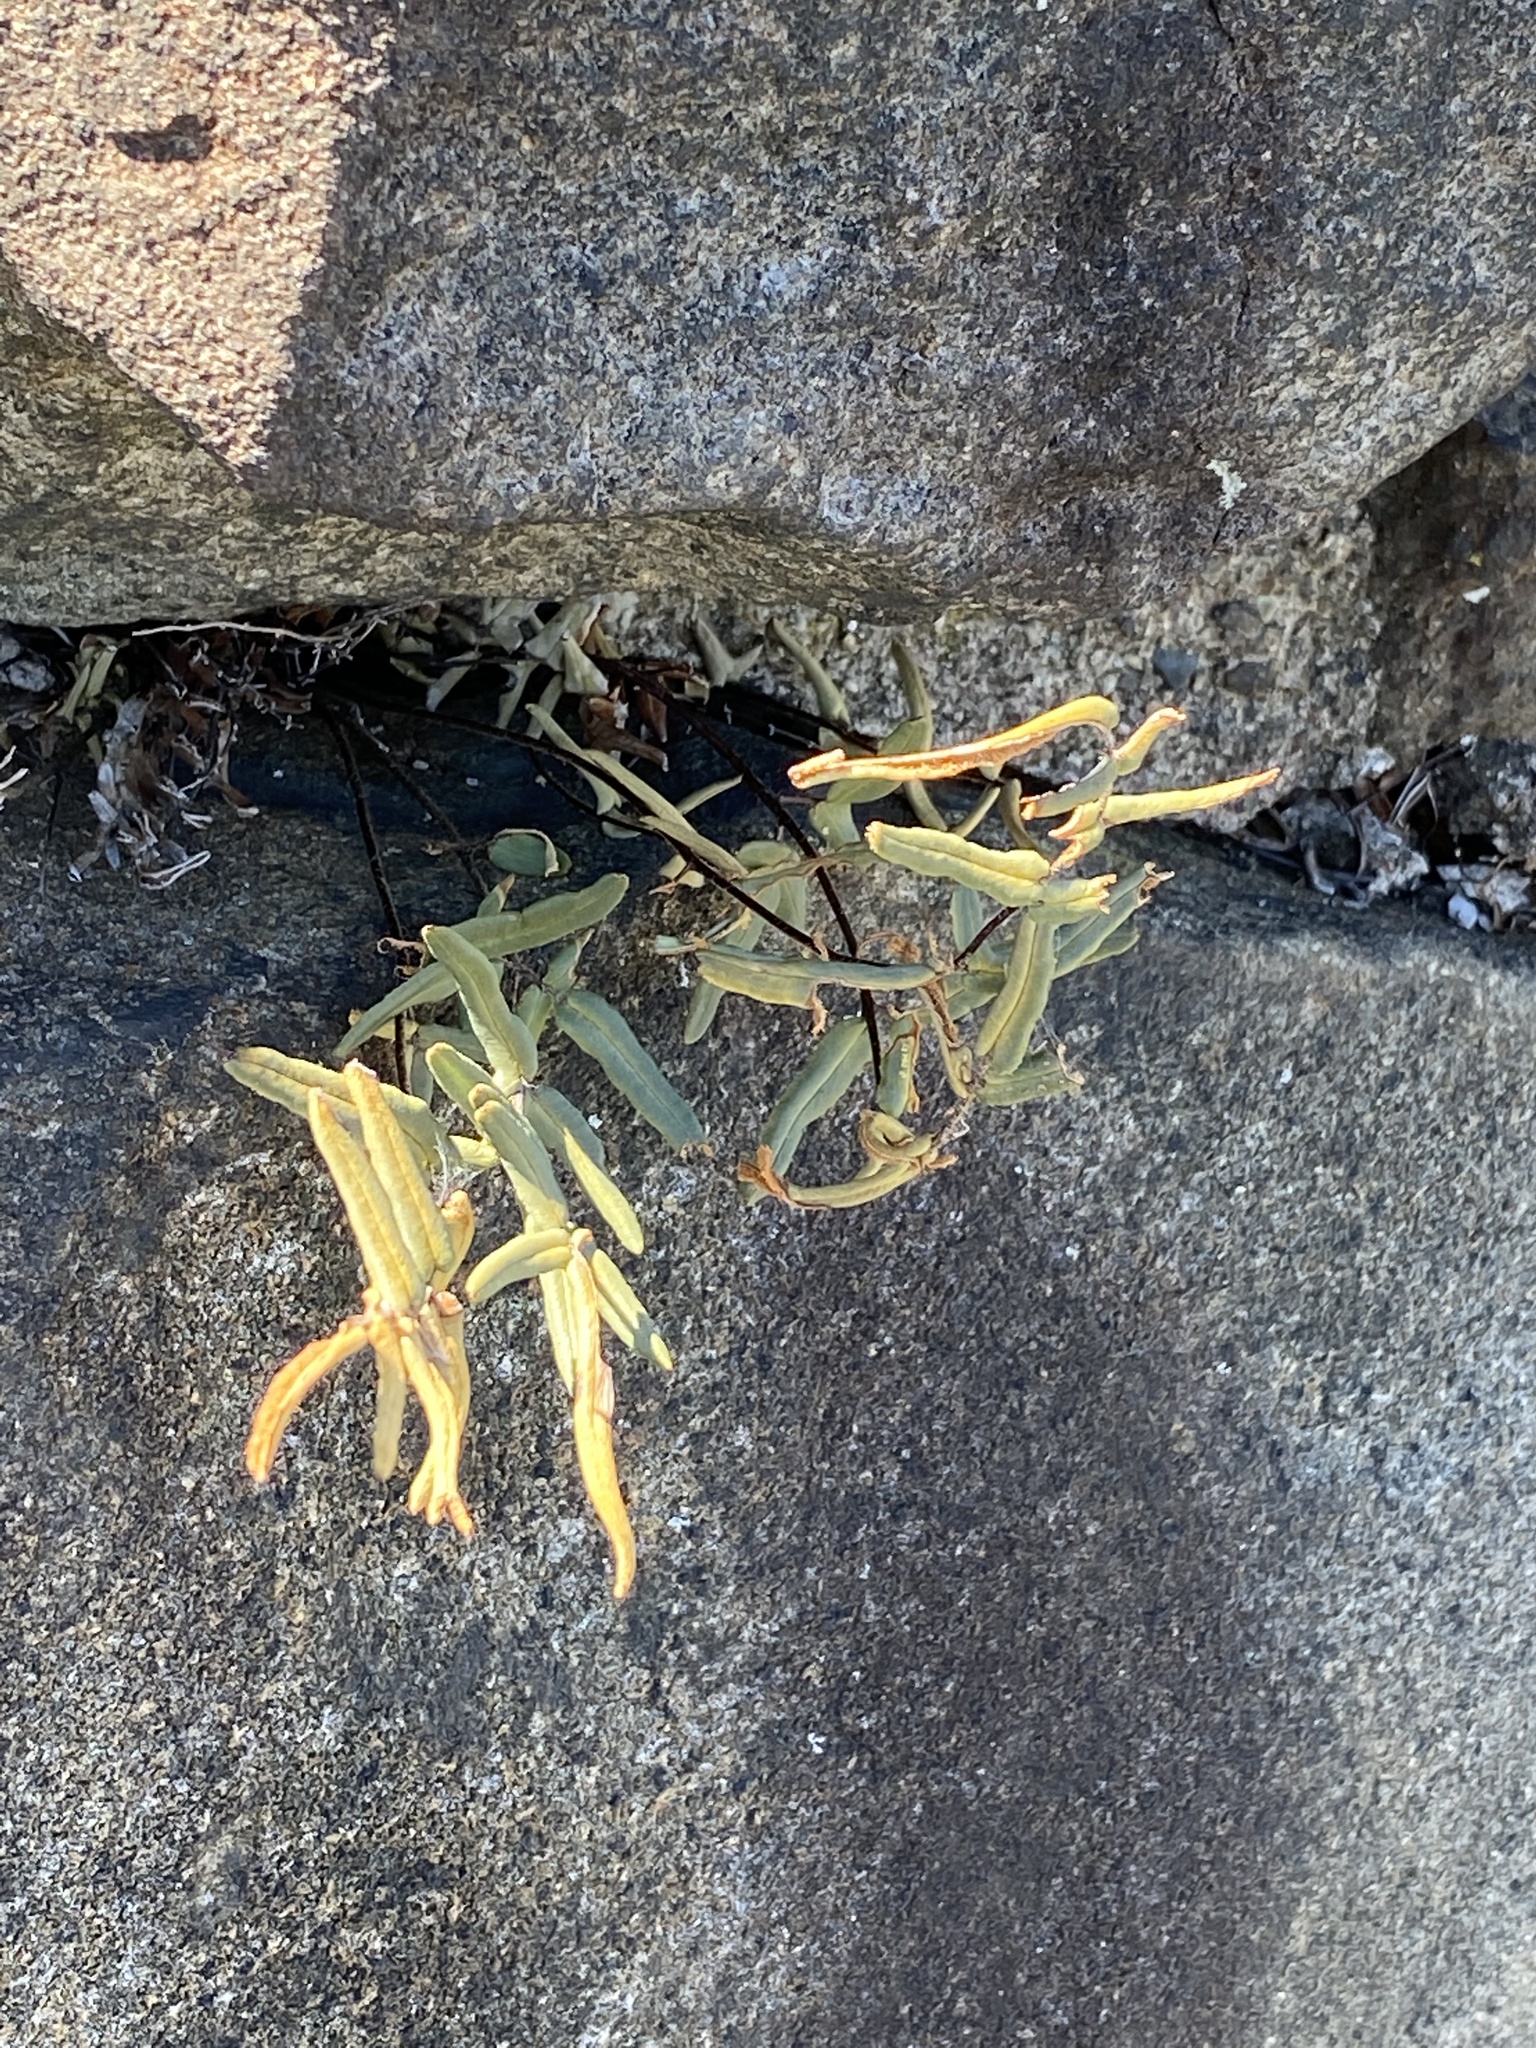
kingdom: Plantae
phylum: Tracheophyta
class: Polypodiopsida
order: Polypodiales
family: Pteridaceae
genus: Pellaea
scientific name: Pellaea atropurpurea
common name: Hairy cliffbrake
